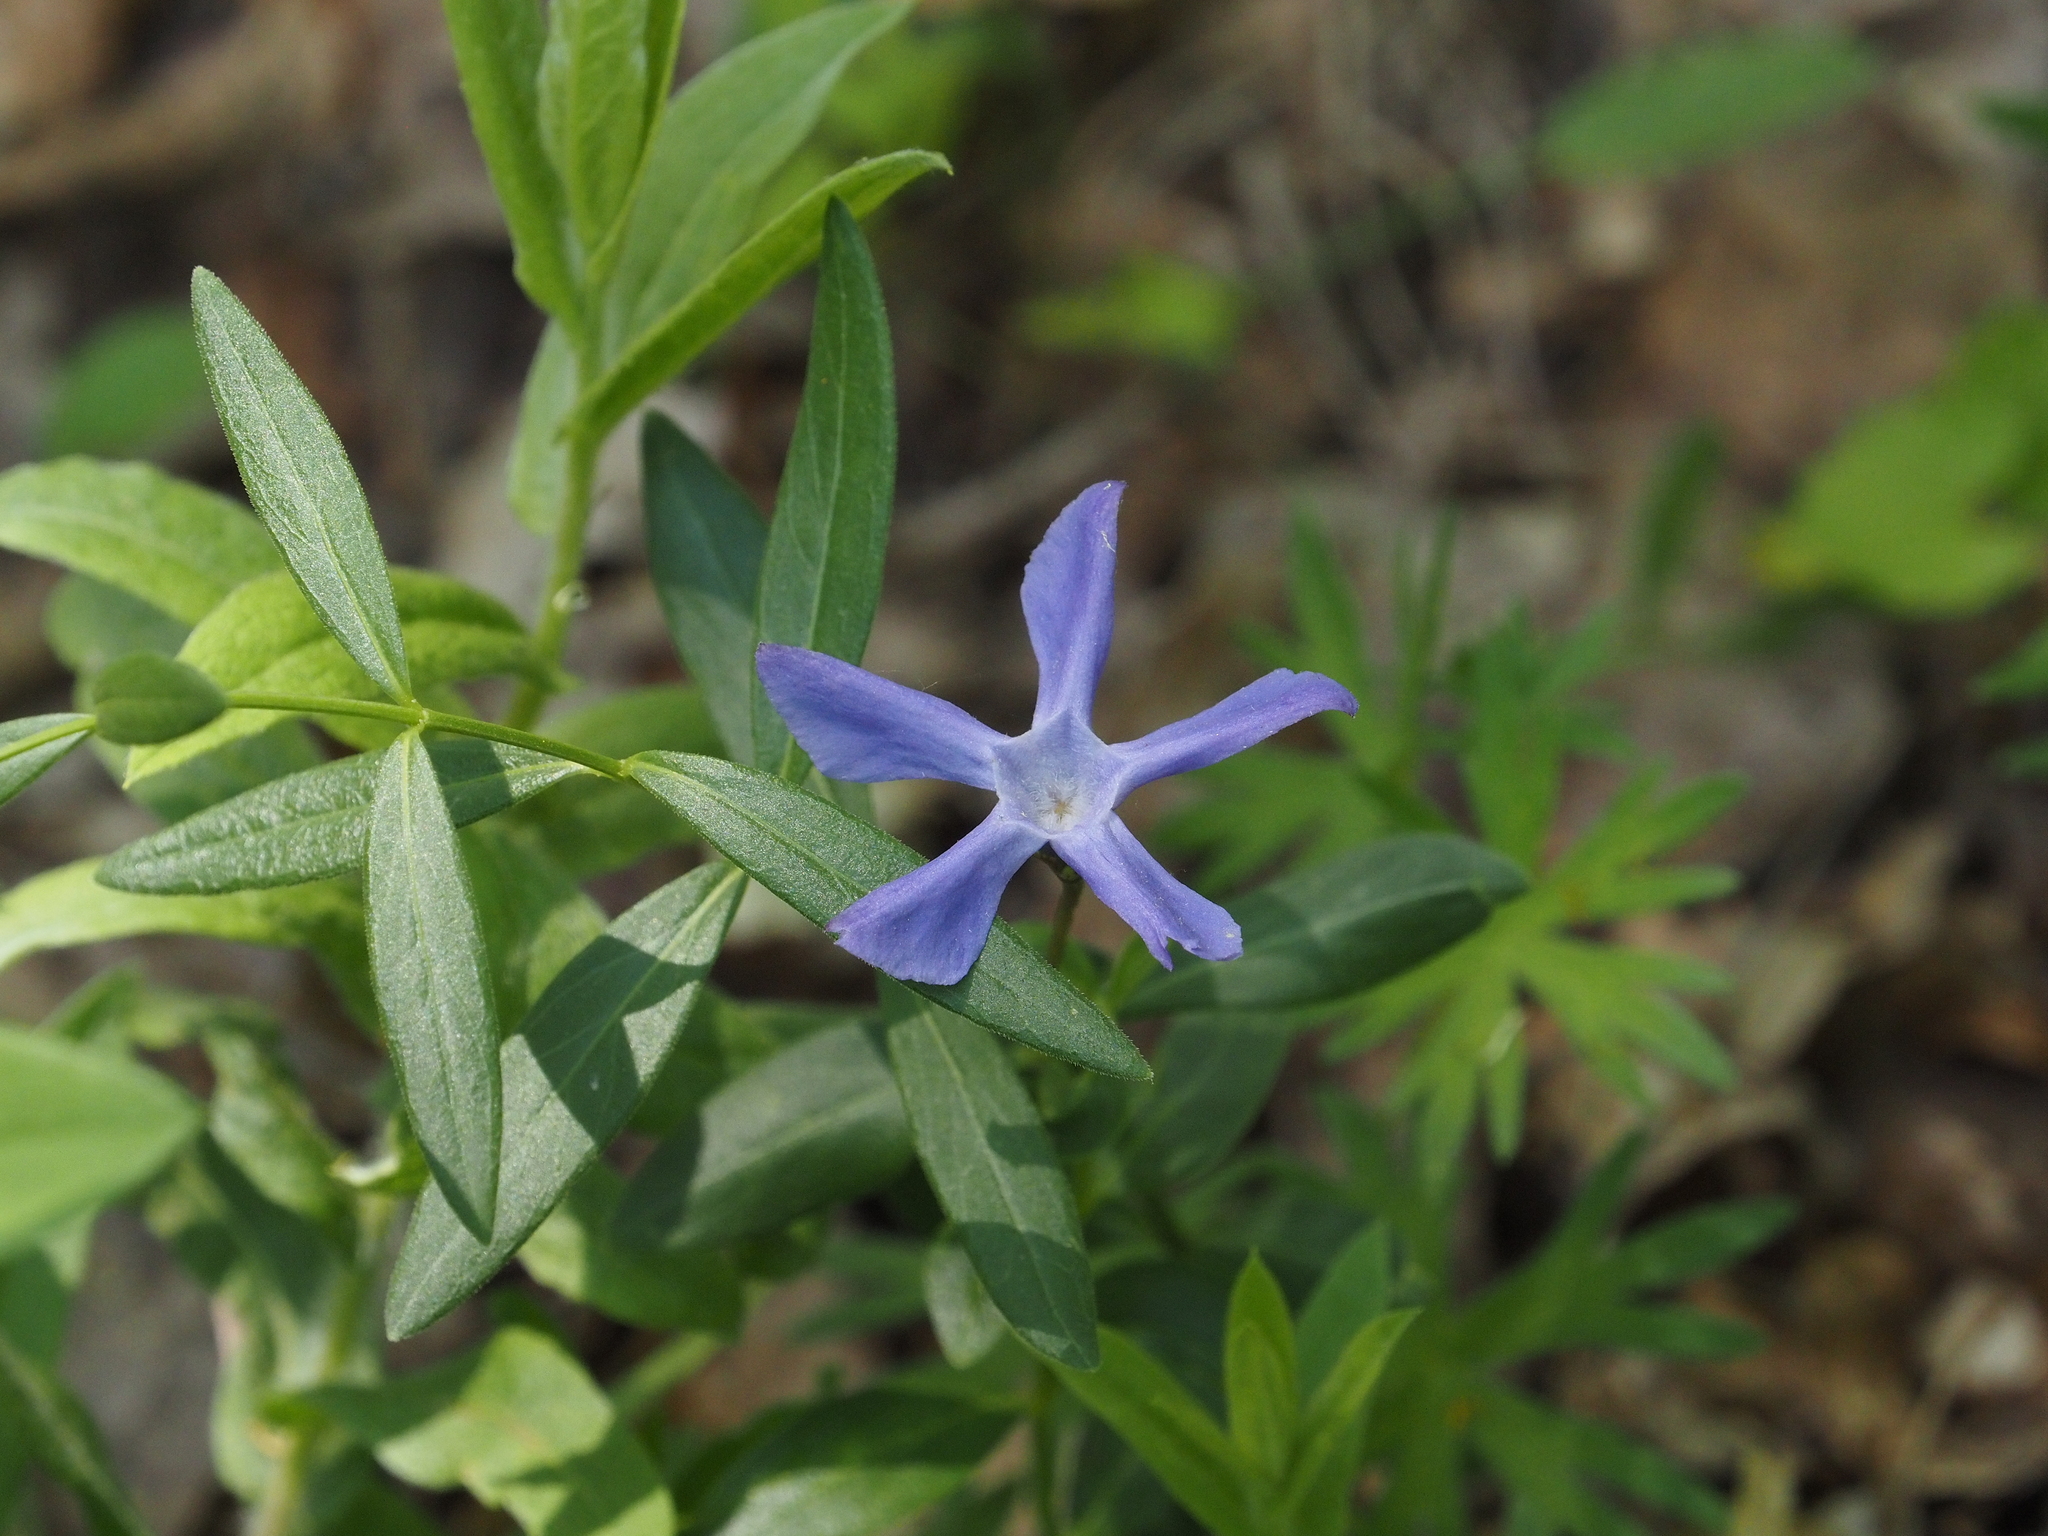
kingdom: Plantae
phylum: Tracheophyta
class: Magnoliopsida
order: Gentianales
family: Apocynaceae
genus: Vinca
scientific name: Vinca herbacea
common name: Herbaceous periwinkle
